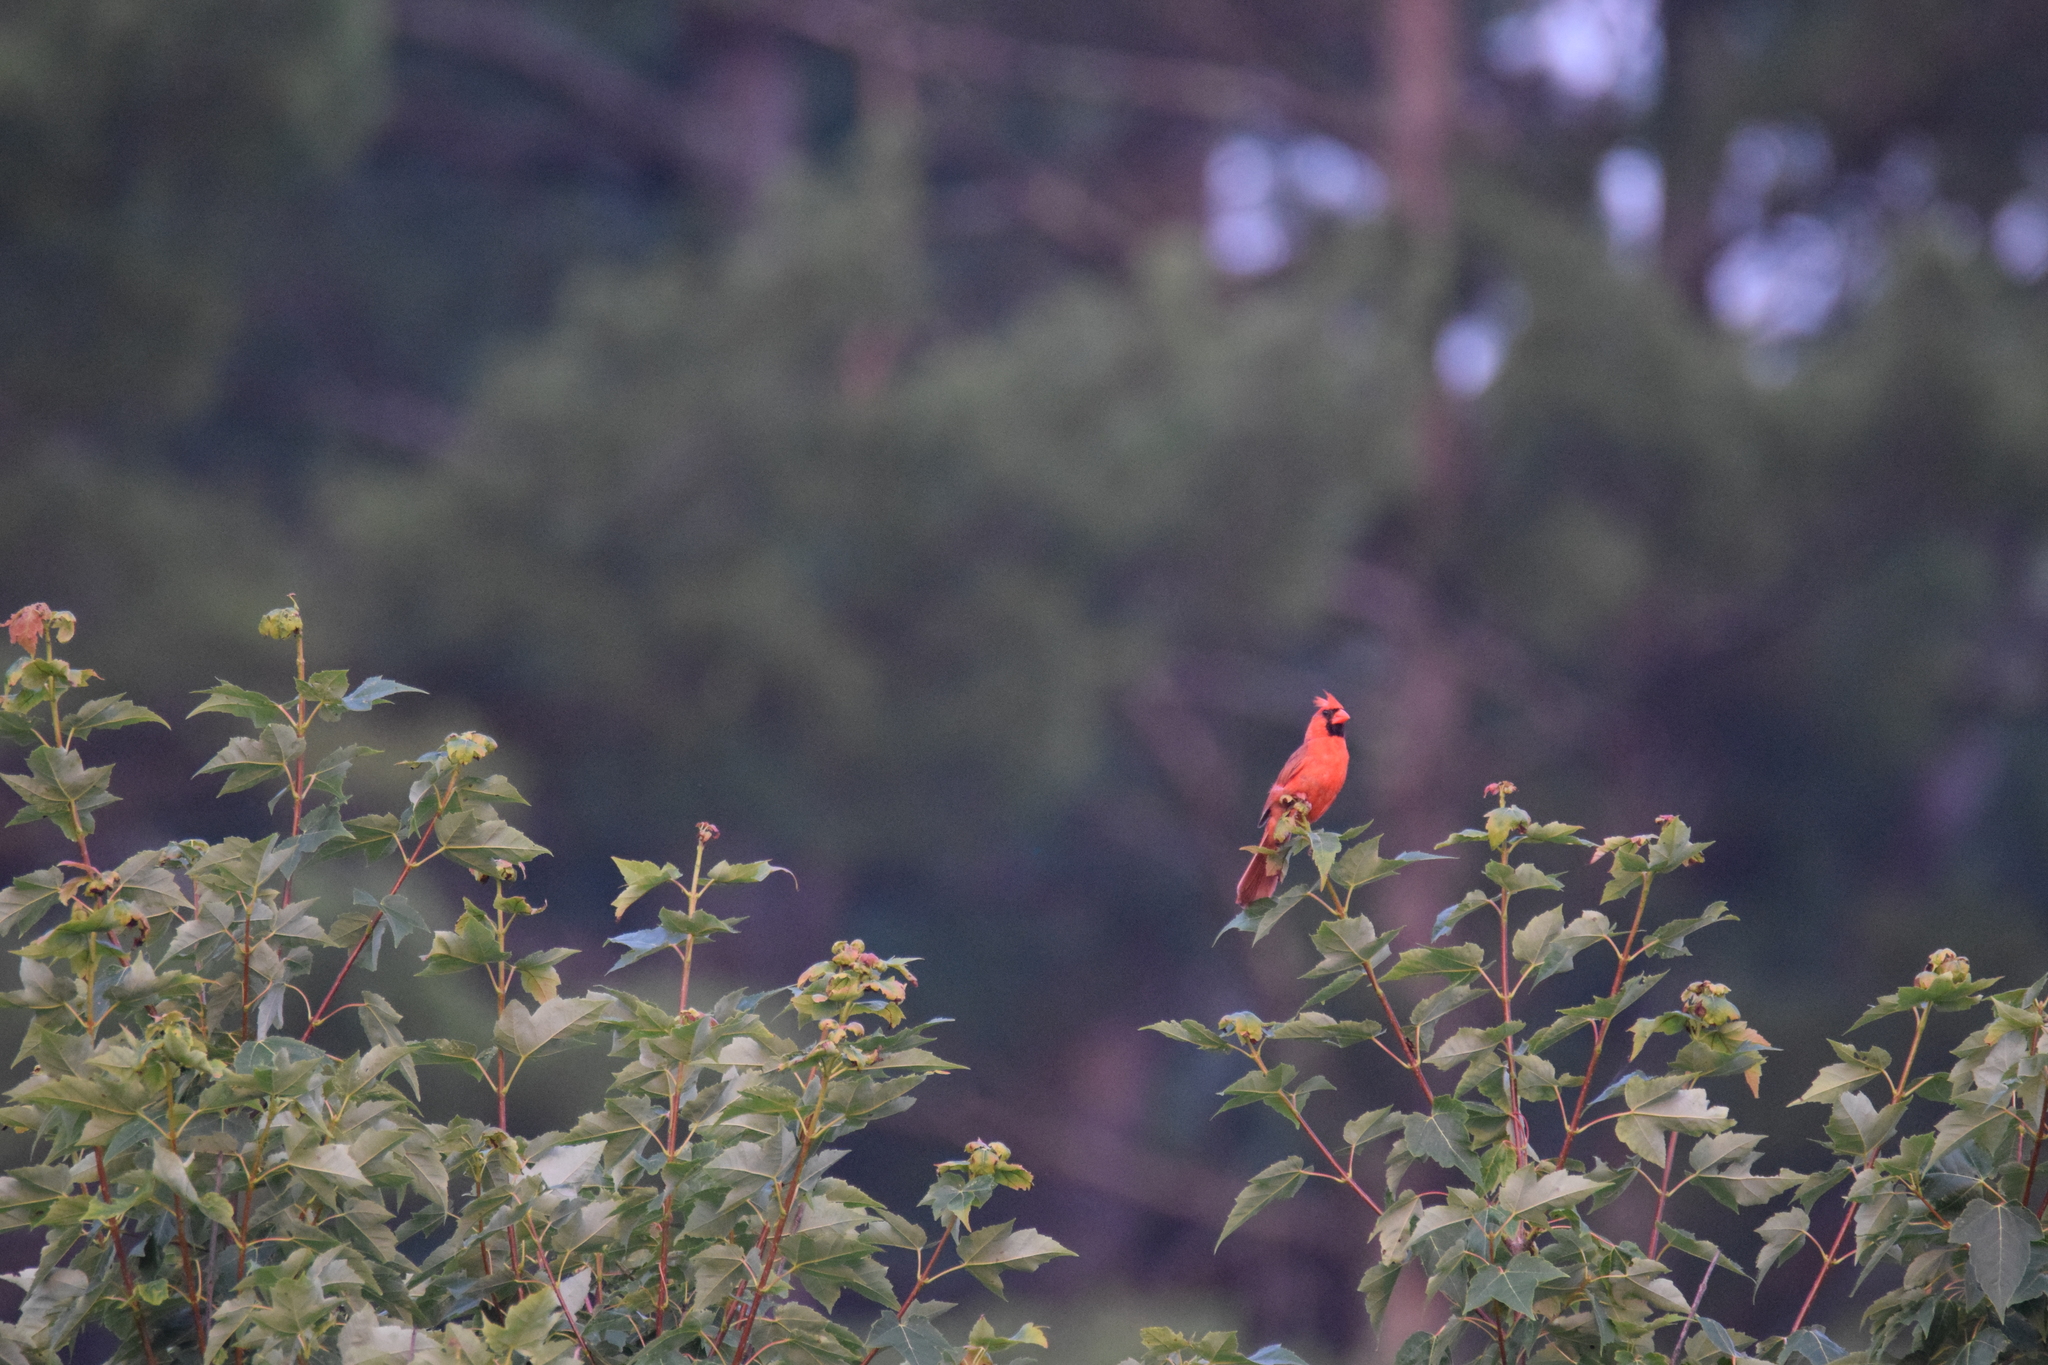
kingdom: Animalia
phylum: Chordata
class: Aves
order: Passeriformes
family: Cardinalidae
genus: Cardinalis
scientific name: Cardinalis cardinalis
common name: Northern cardinal
